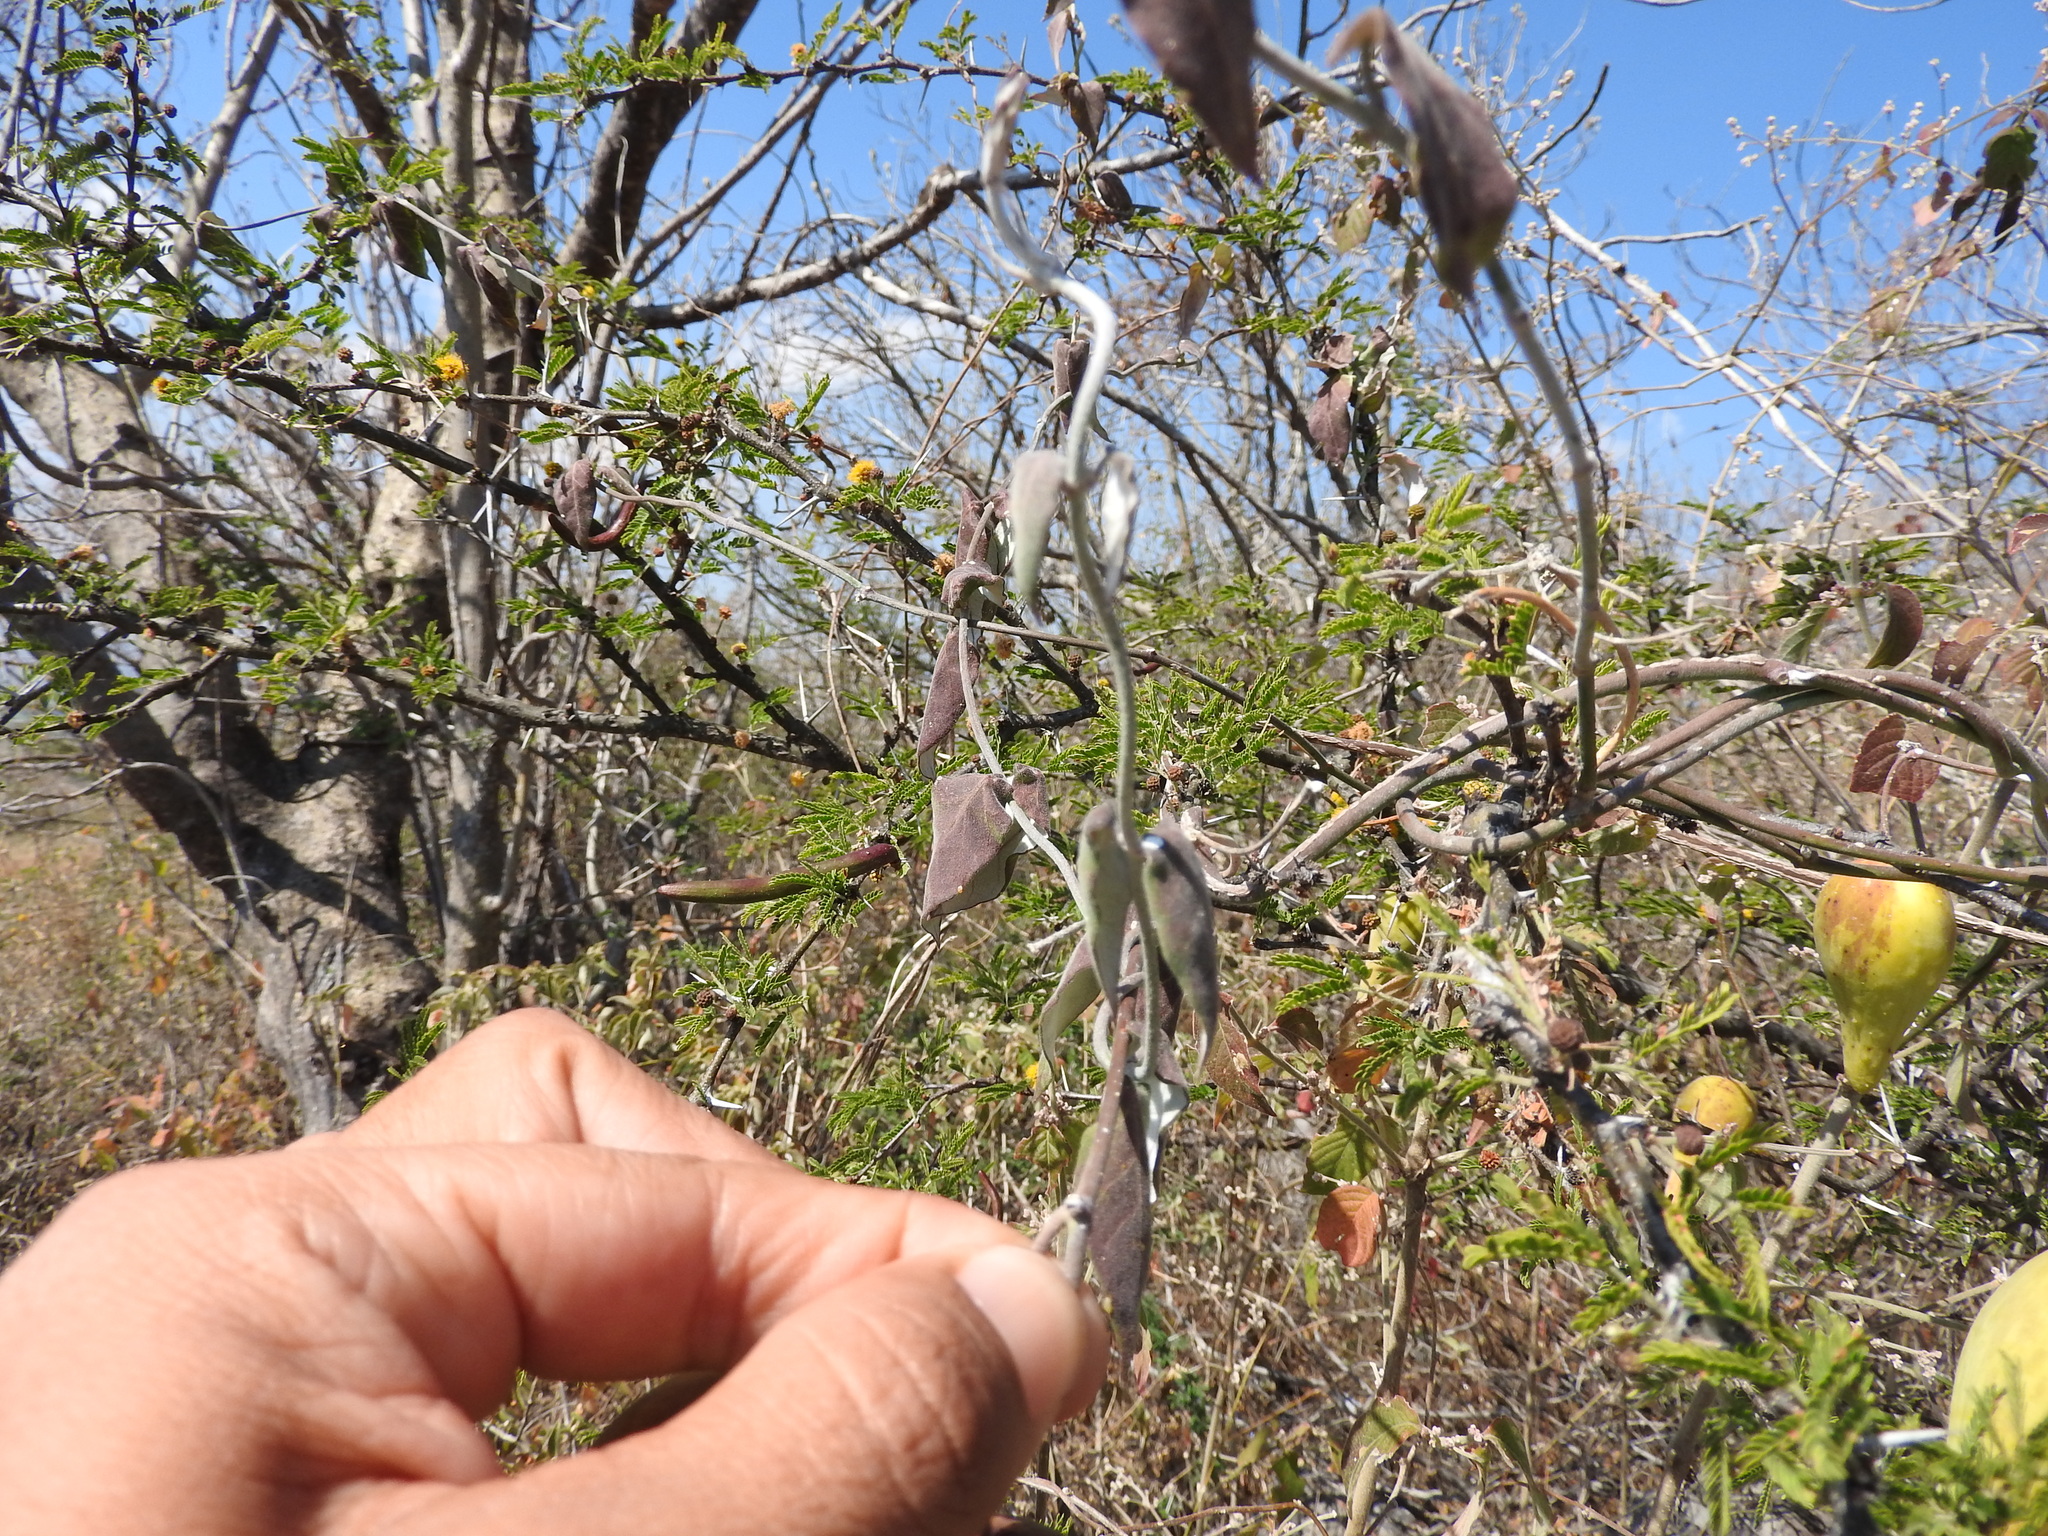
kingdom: Plantae
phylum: Tracheophyta
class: Magnoliopsida
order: Fabales
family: Fabaceae
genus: Vachellia
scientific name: Vachellia farnesiana
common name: Sweet acacia
